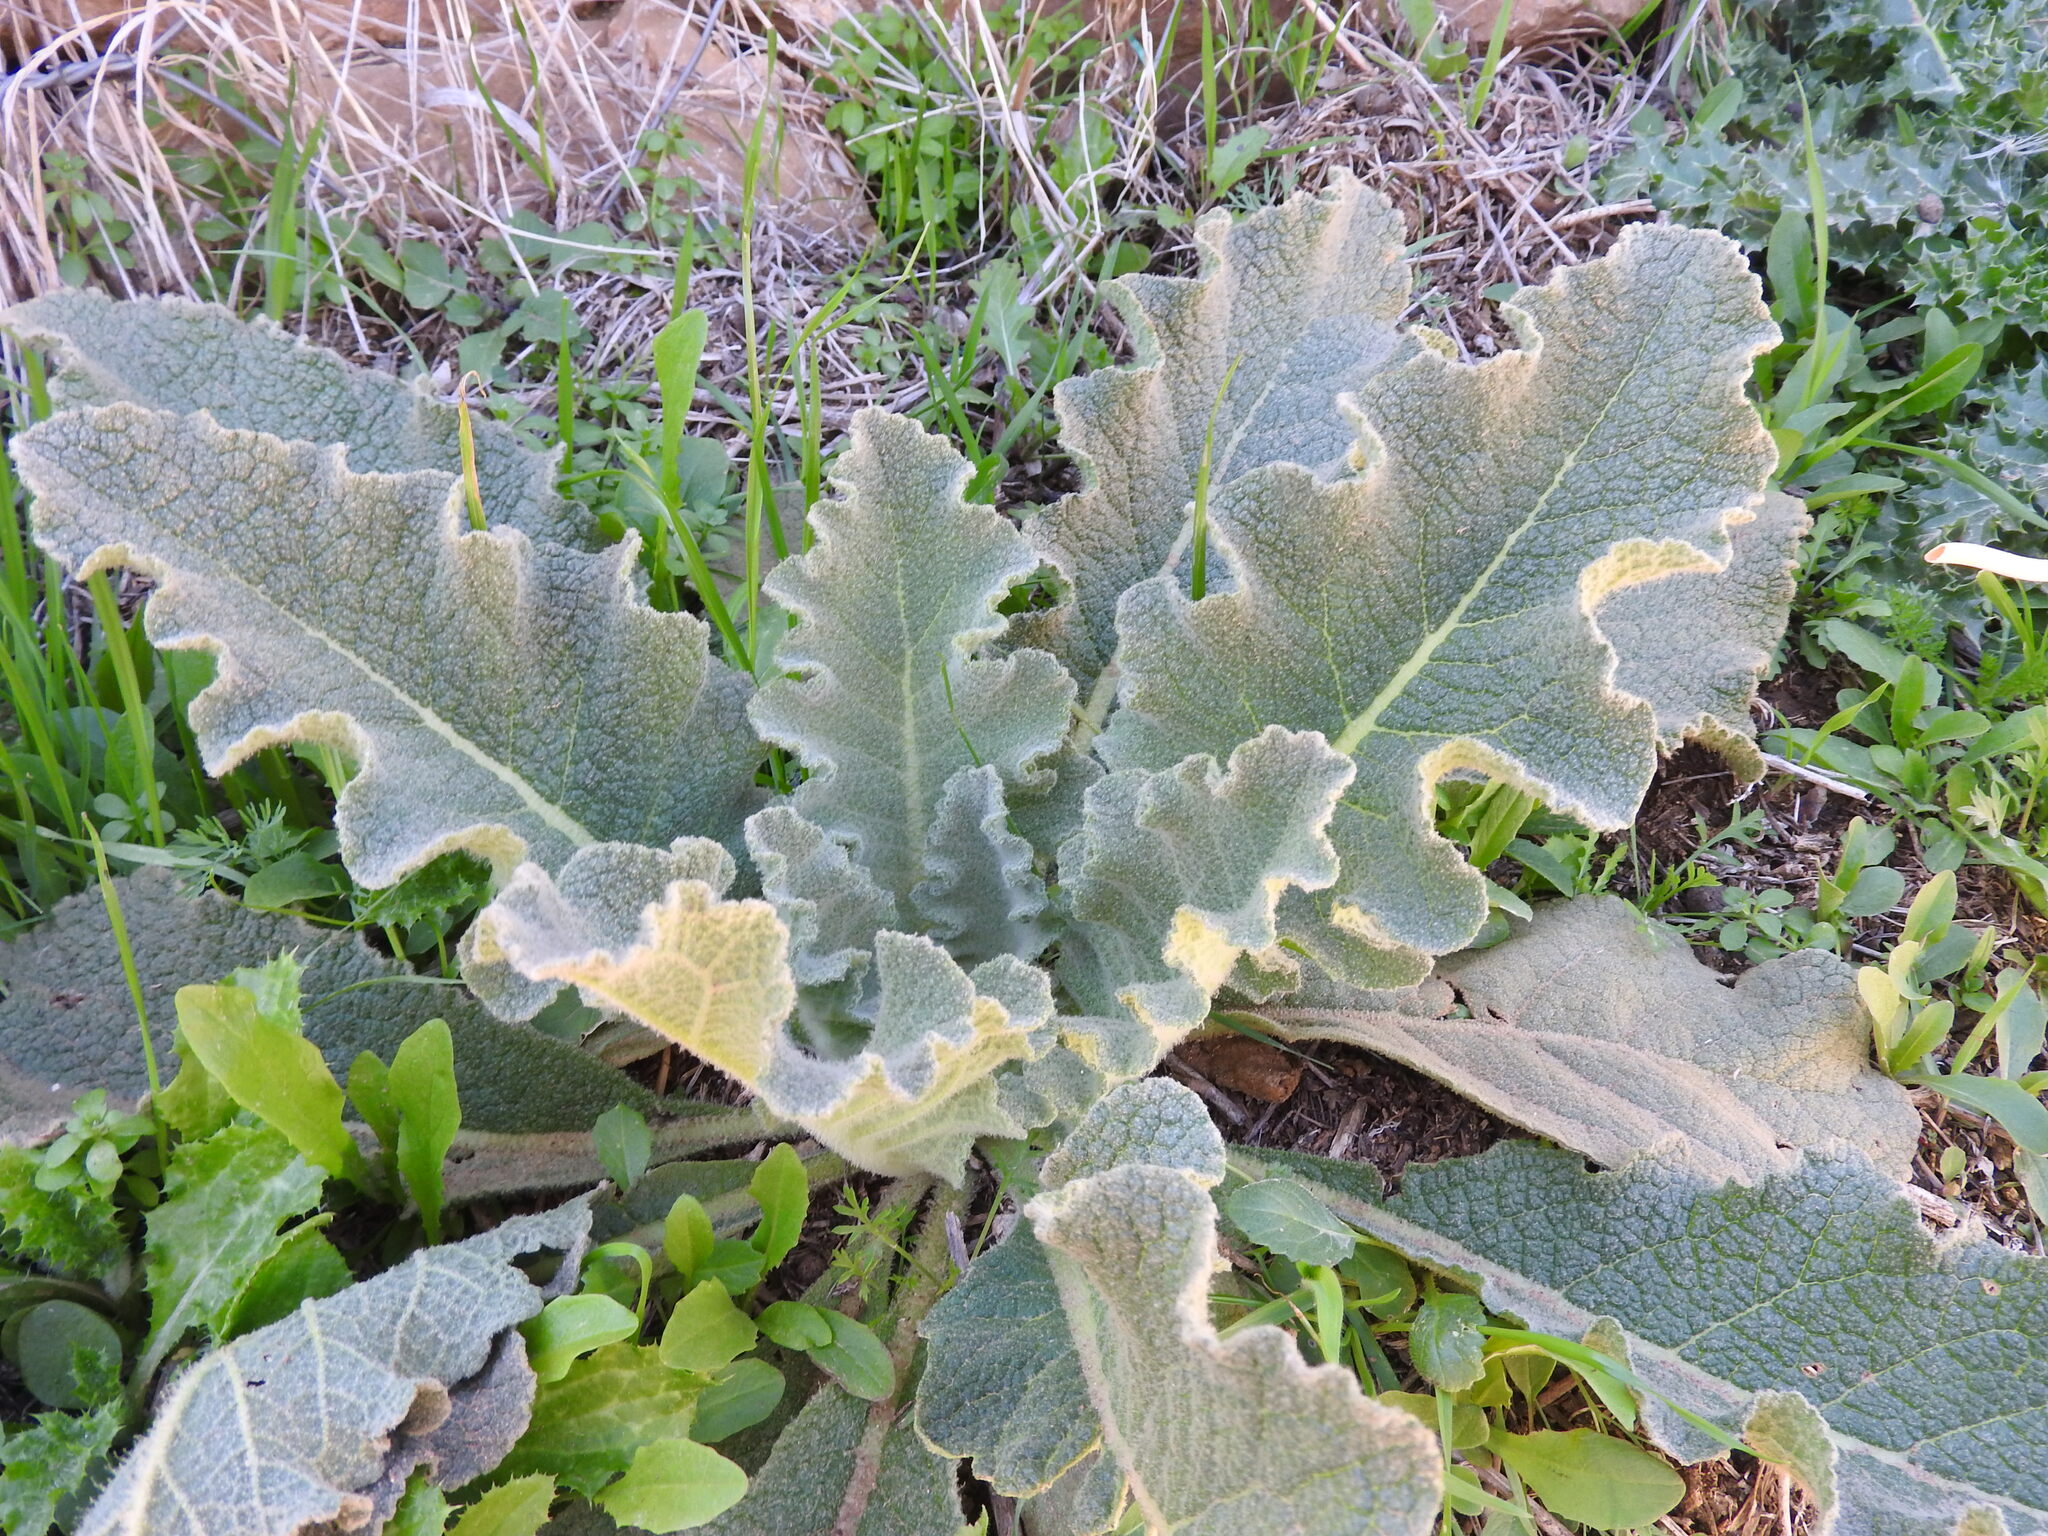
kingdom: Plantae
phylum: Tracheophyta
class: Magnoliopsida
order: Lamiales
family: Scrophulariaceae
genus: Verbascum
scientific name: Verbascum sinuatum
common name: Wavyleaf mullein
